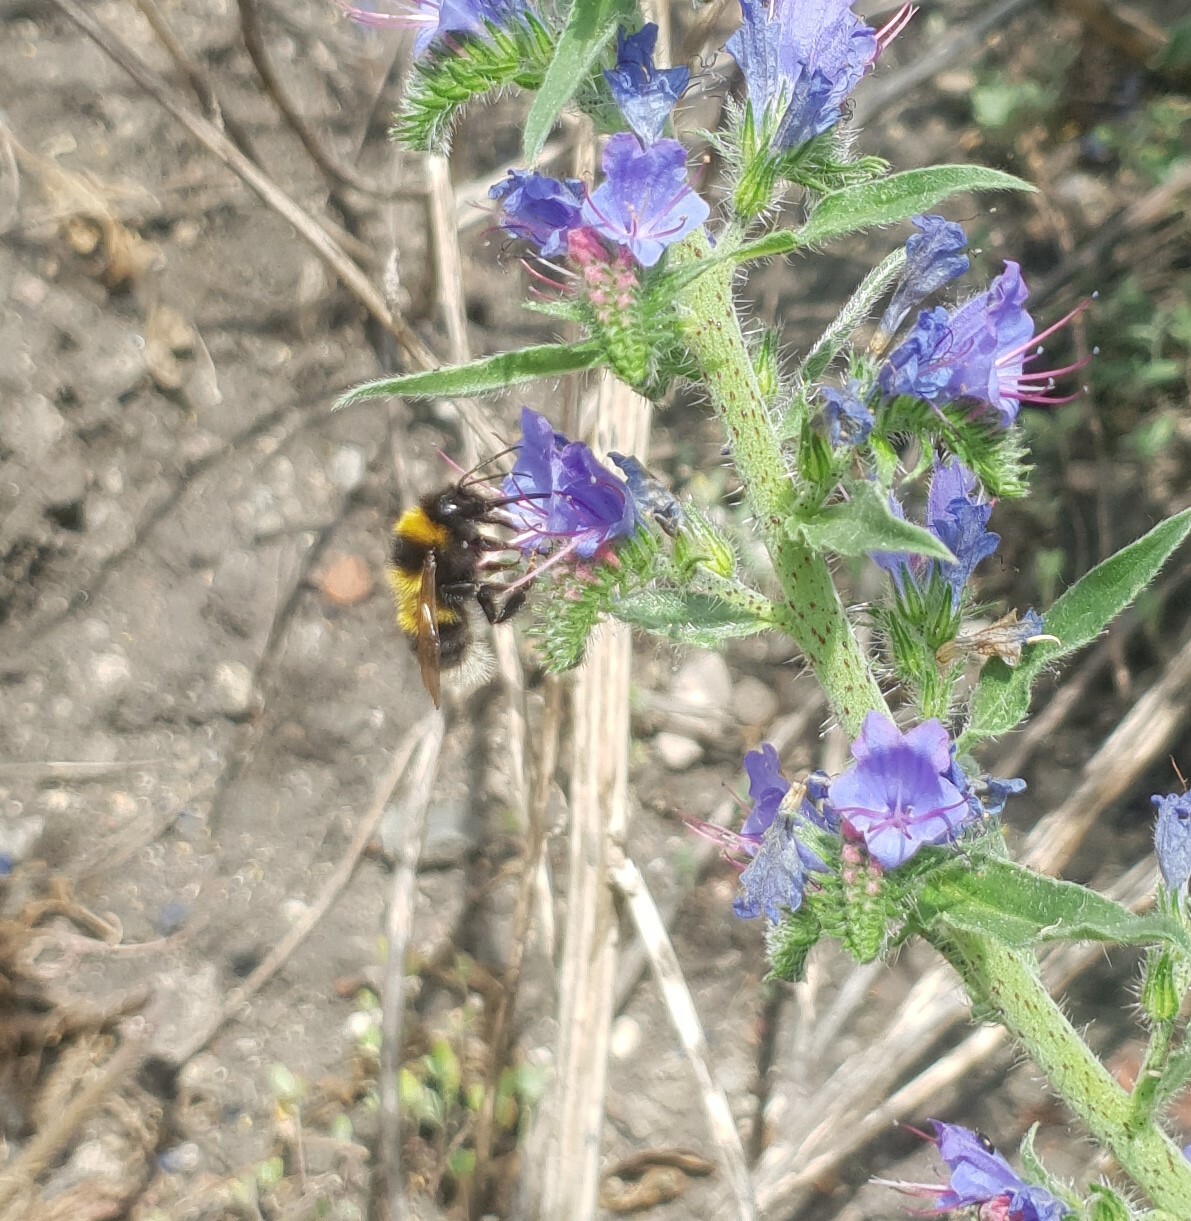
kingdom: Animalia
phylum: Arthropoda
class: Insecta
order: Hymenoptera
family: Apidae
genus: Bombus
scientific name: Bombus hortorum
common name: Garden bumblebee
